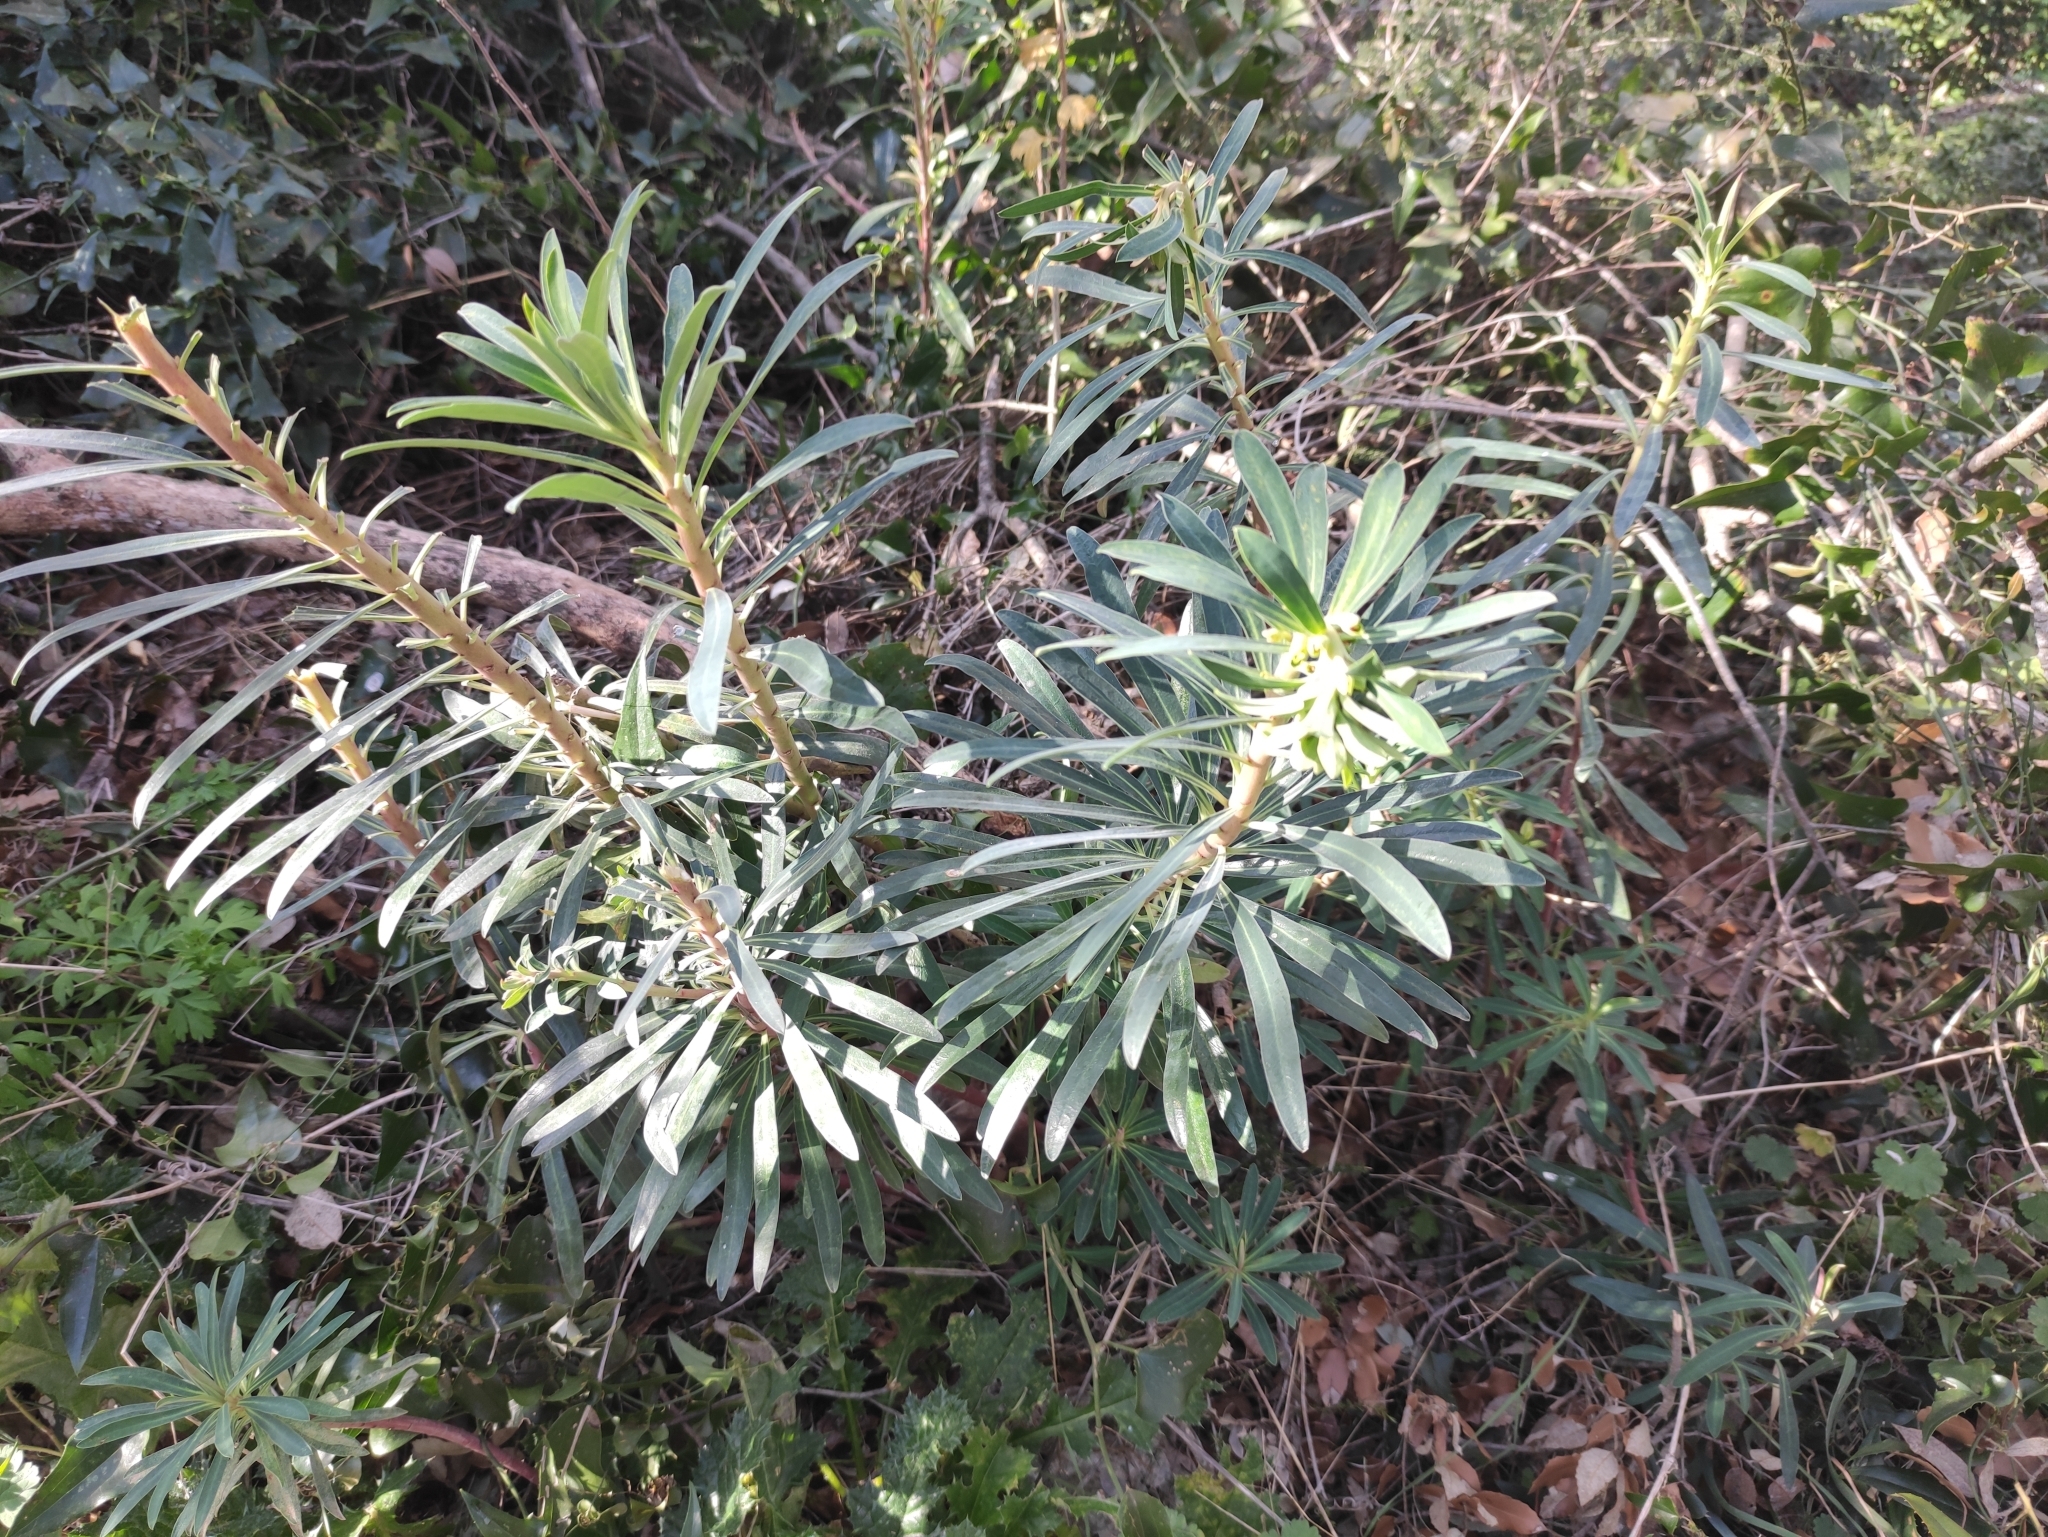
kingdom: Plantae
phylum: Tracheophyta
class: Magnoliopsida
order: Malpighiales
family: Euphorbiaceae
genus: Euphorbia
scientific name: Euphorbia characias
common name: Mediterranean spurge
